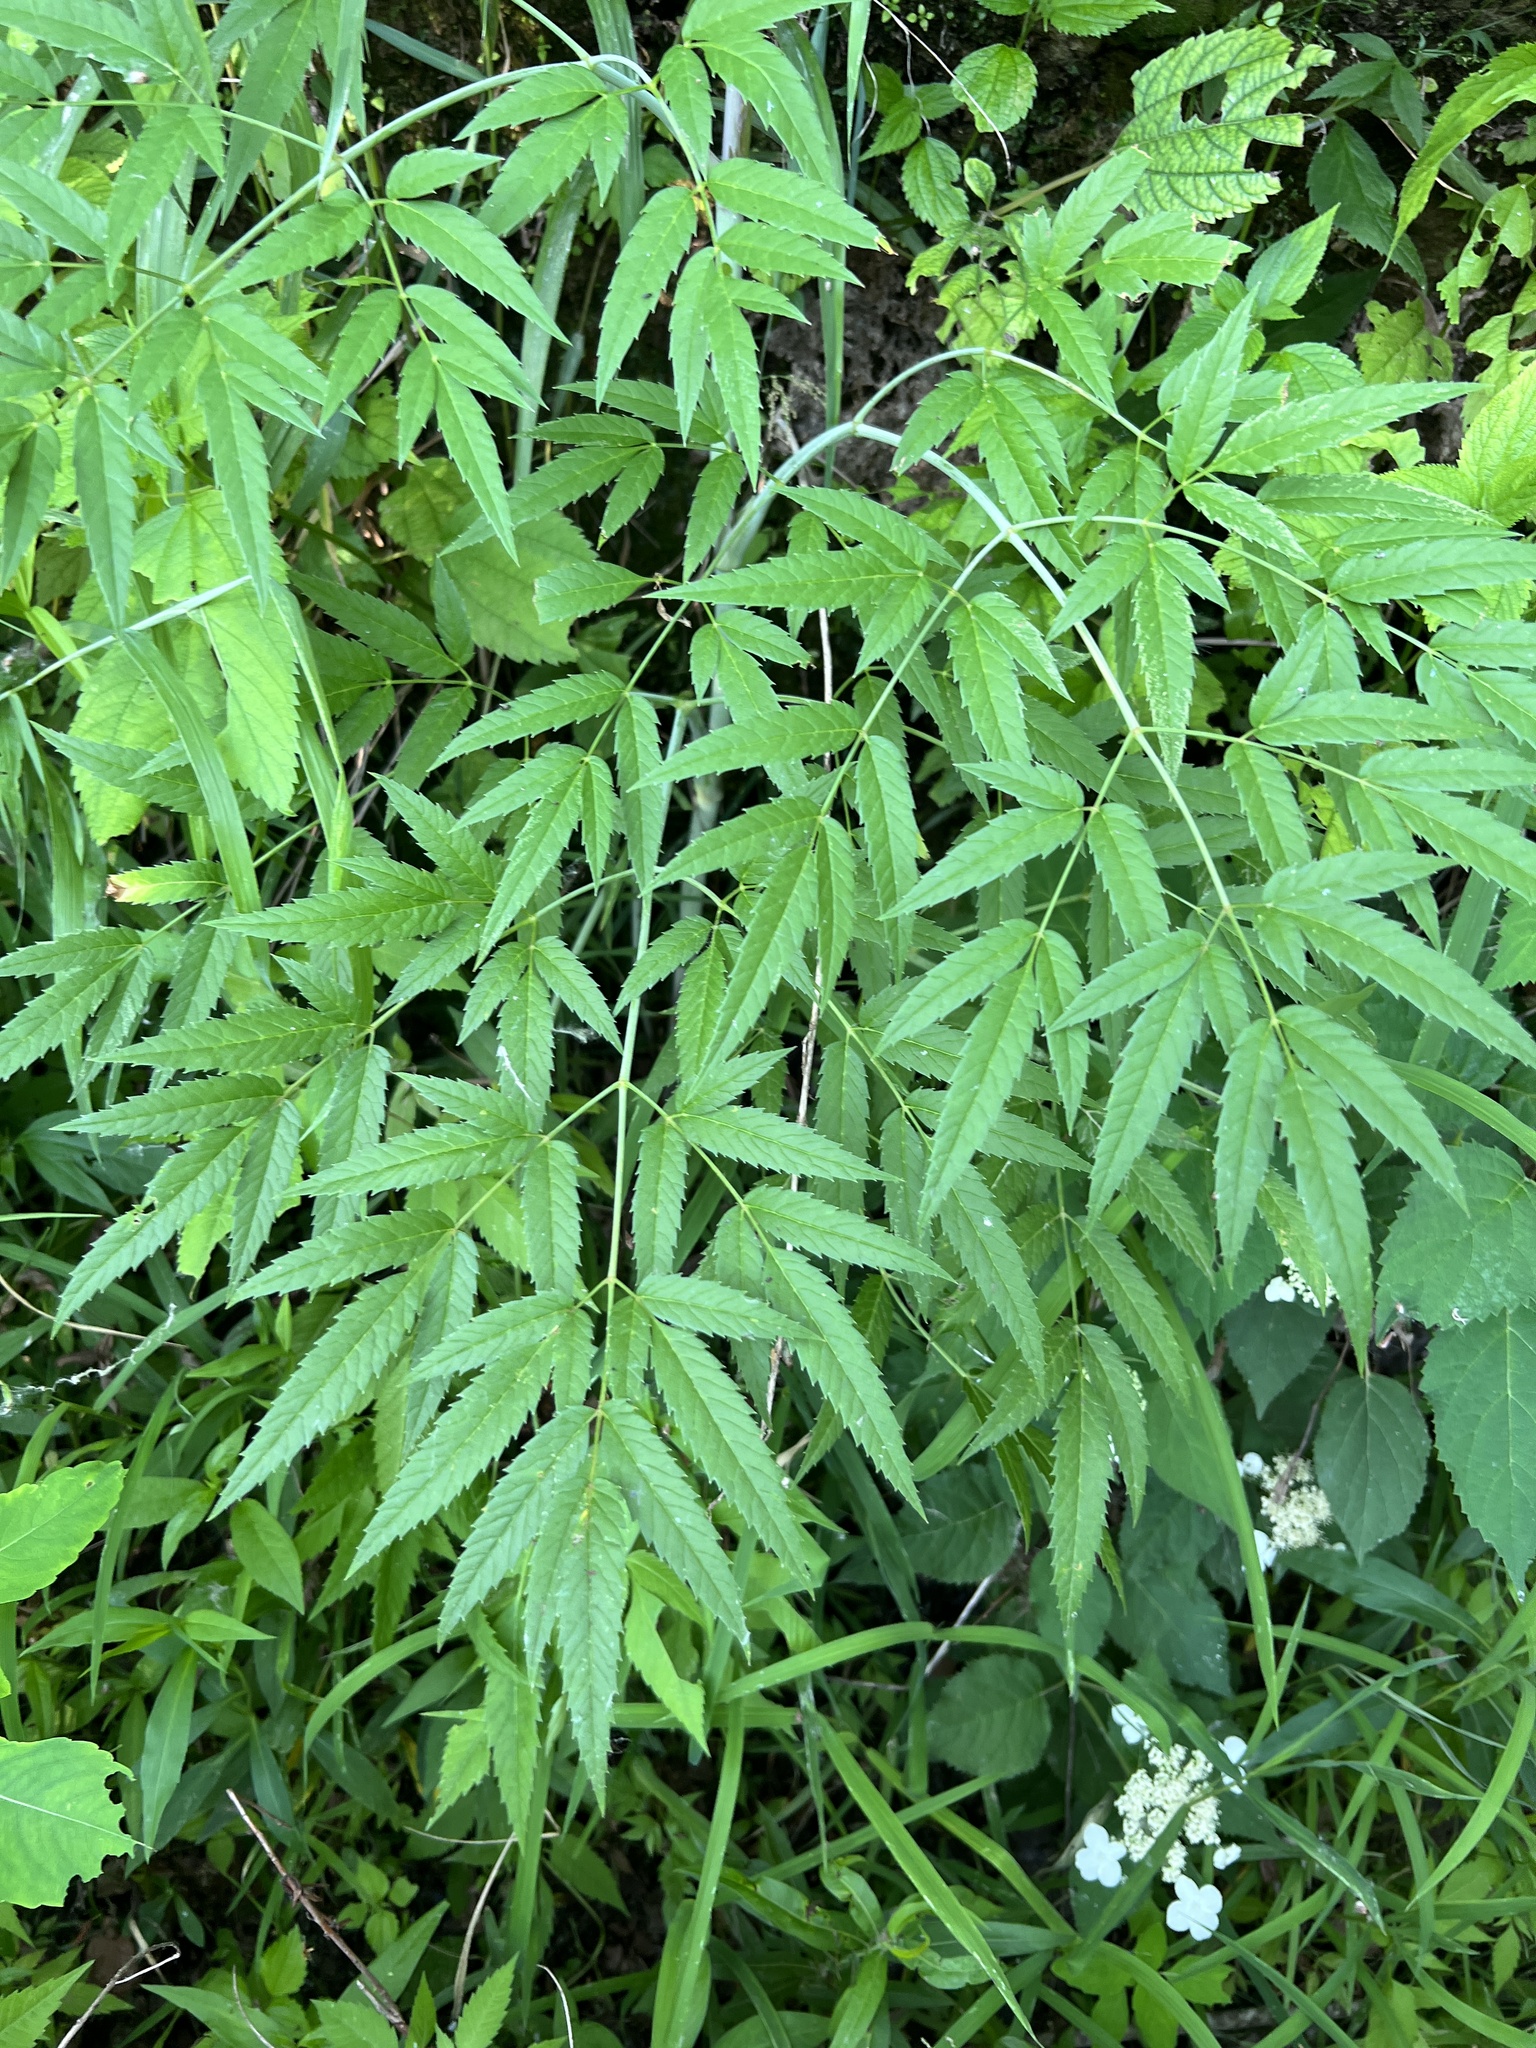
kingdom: Plantae
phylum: Tracheophyta
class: Magnoliopsida
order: Apiales
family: Apiaceae
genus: Cicuta
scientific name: Cicuta maculata
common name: Spotted cowbane
